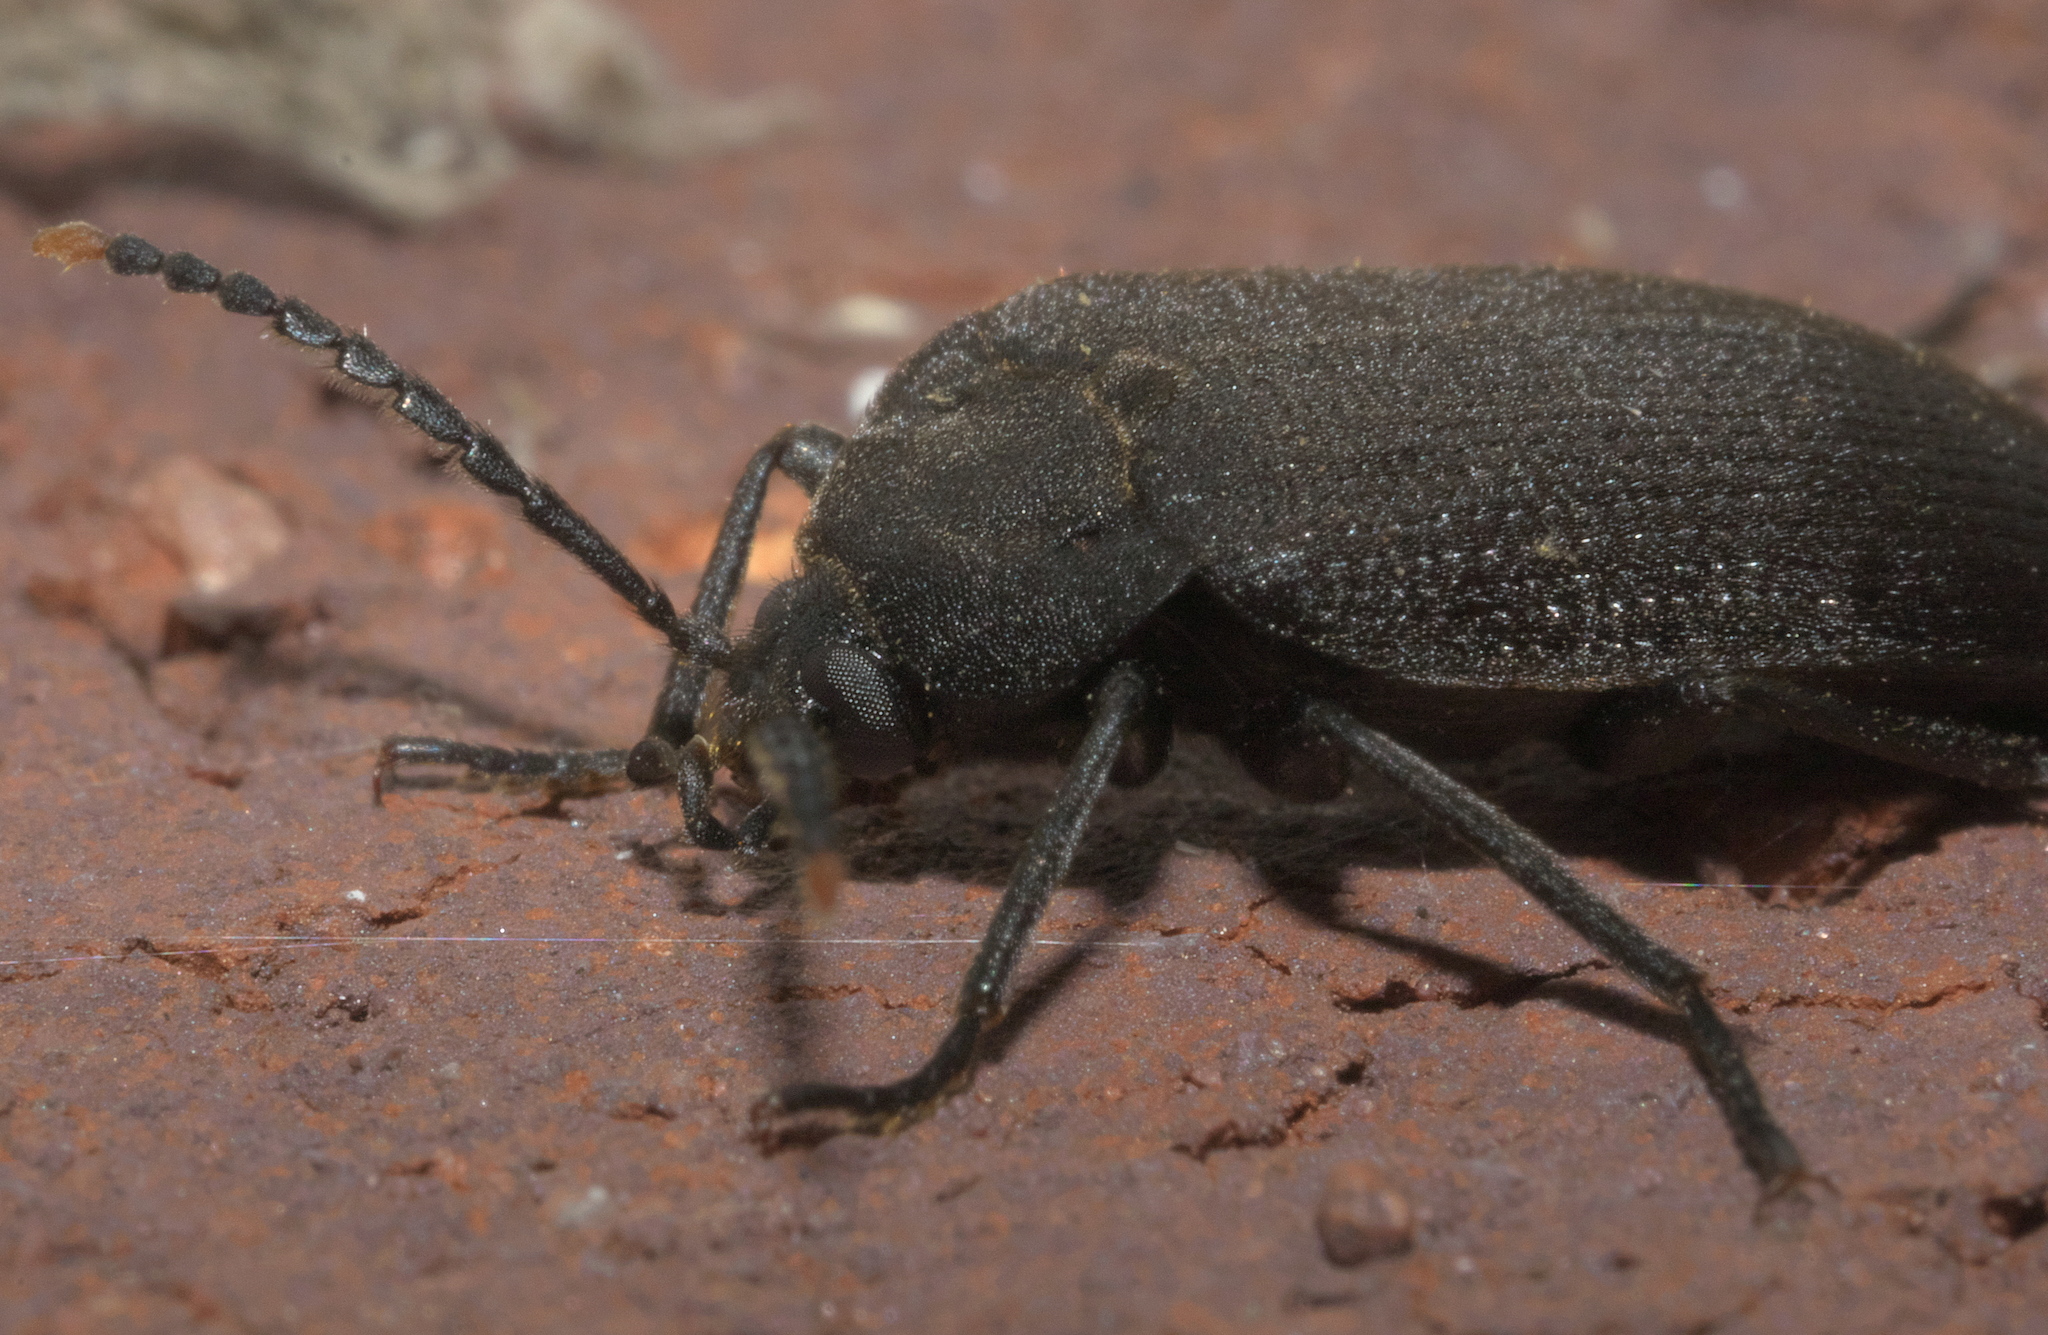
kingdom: Animalia
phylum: Arthropoda
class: Insecta
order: Coleoptera
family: Tetratomidae
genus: Penthe
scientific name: Penthe pimelia
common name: Velvety bark beetle
